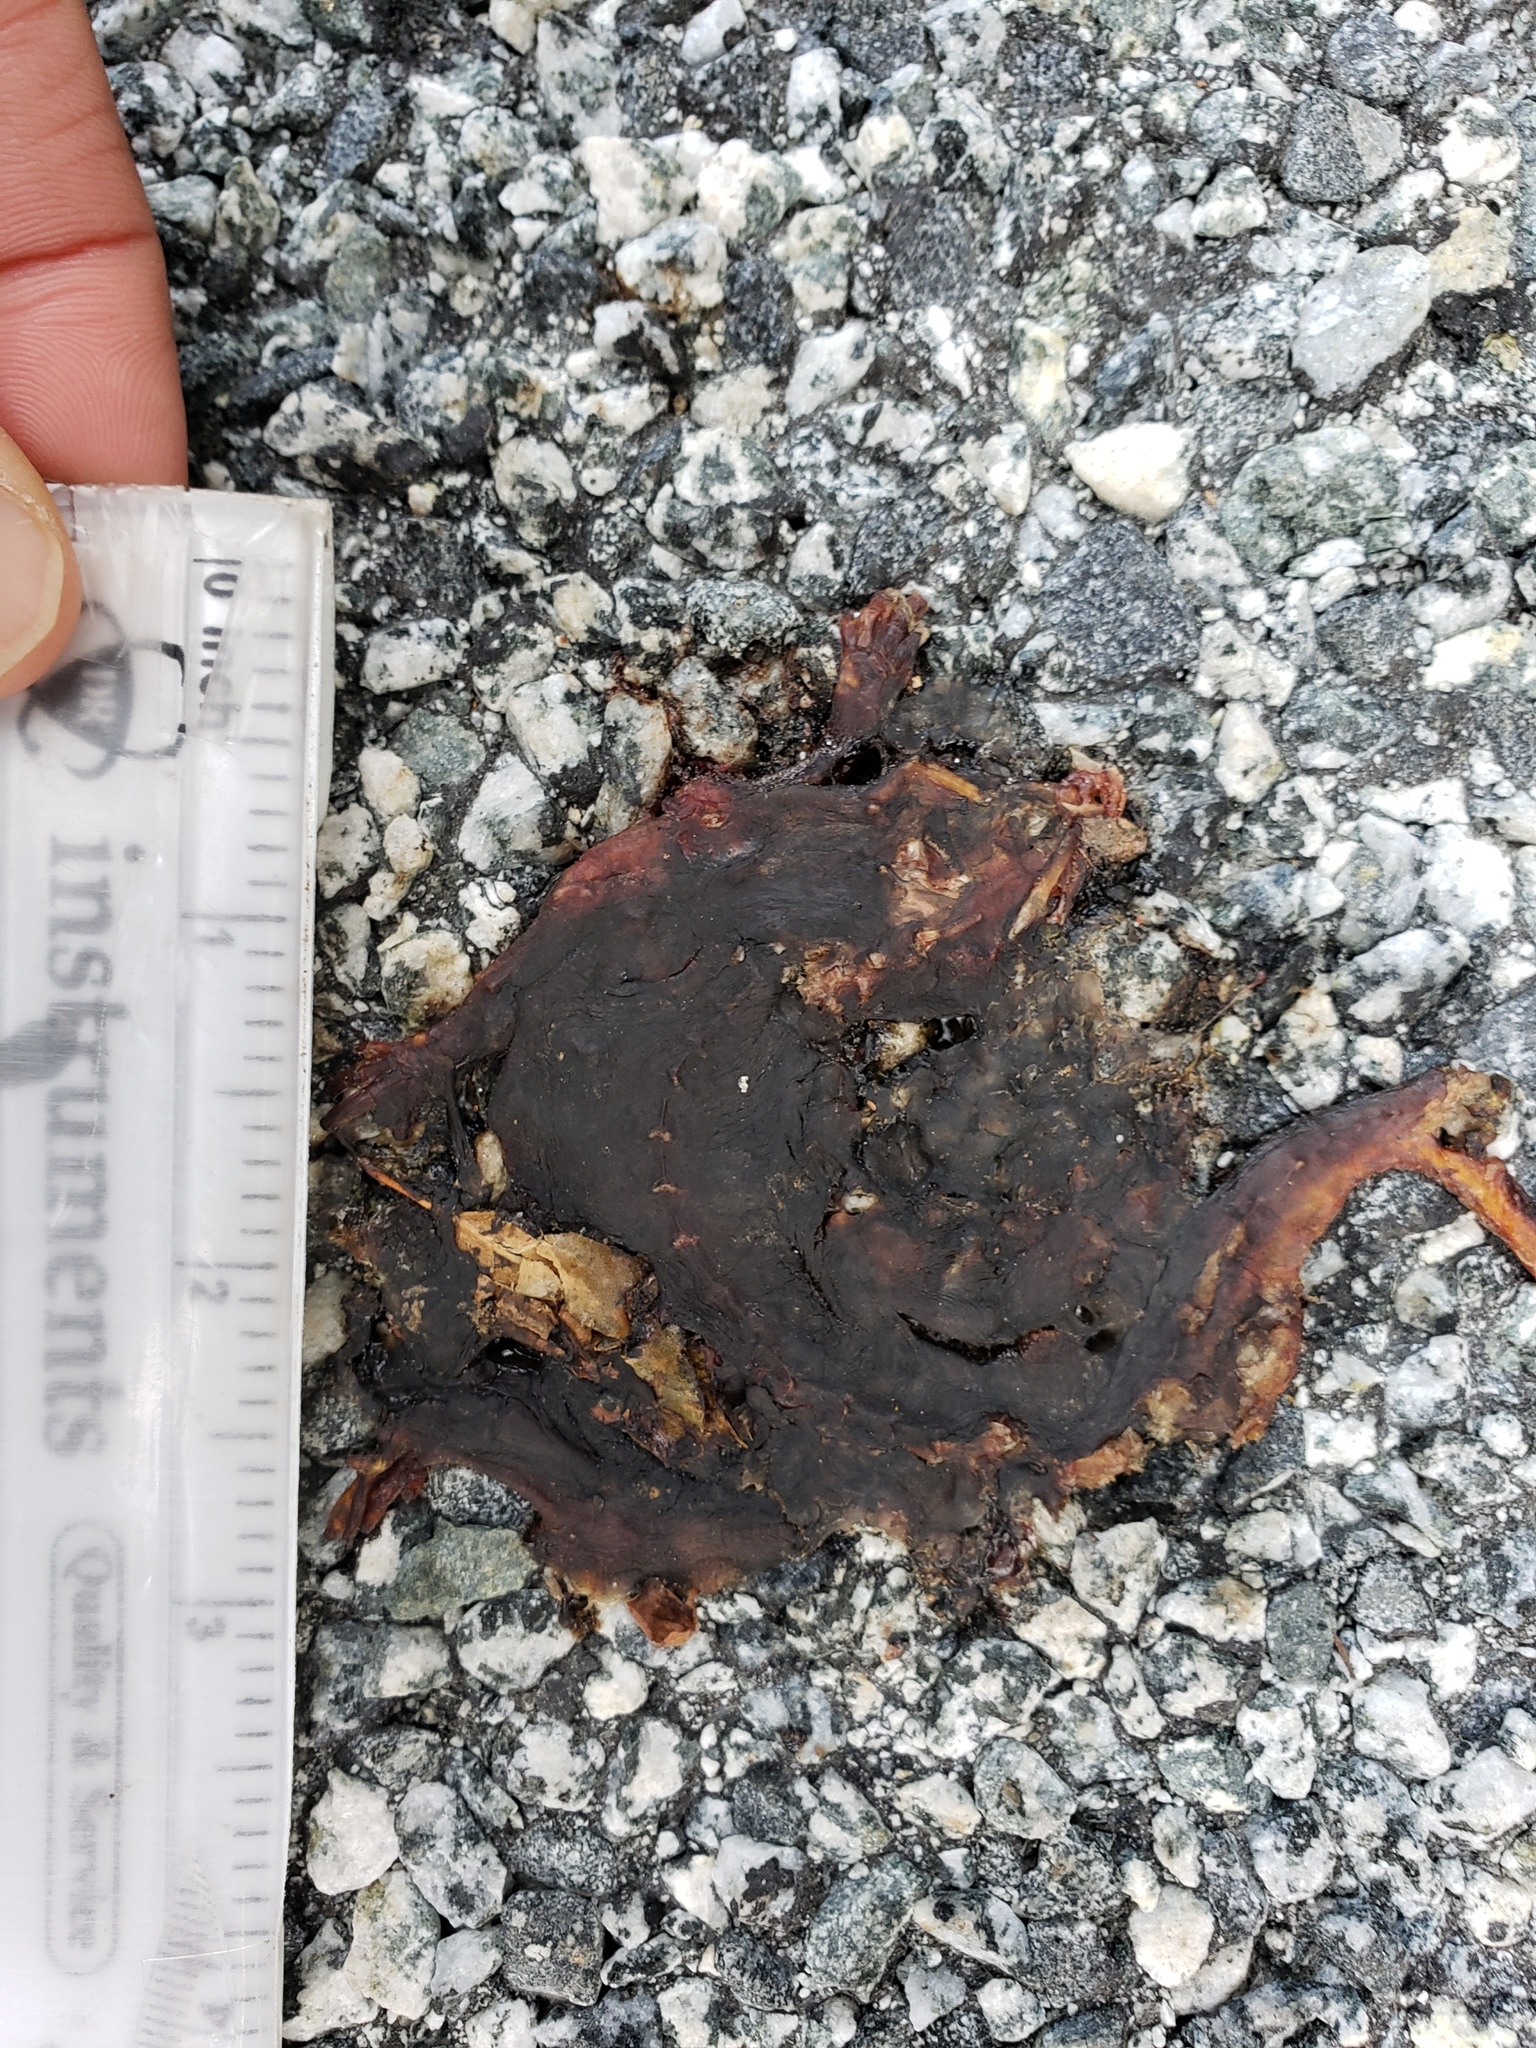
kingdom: Animalia
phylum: Chordata
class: Amphibia
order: Caudata
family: Salamandridae
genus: Taricha
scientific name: Taricha
